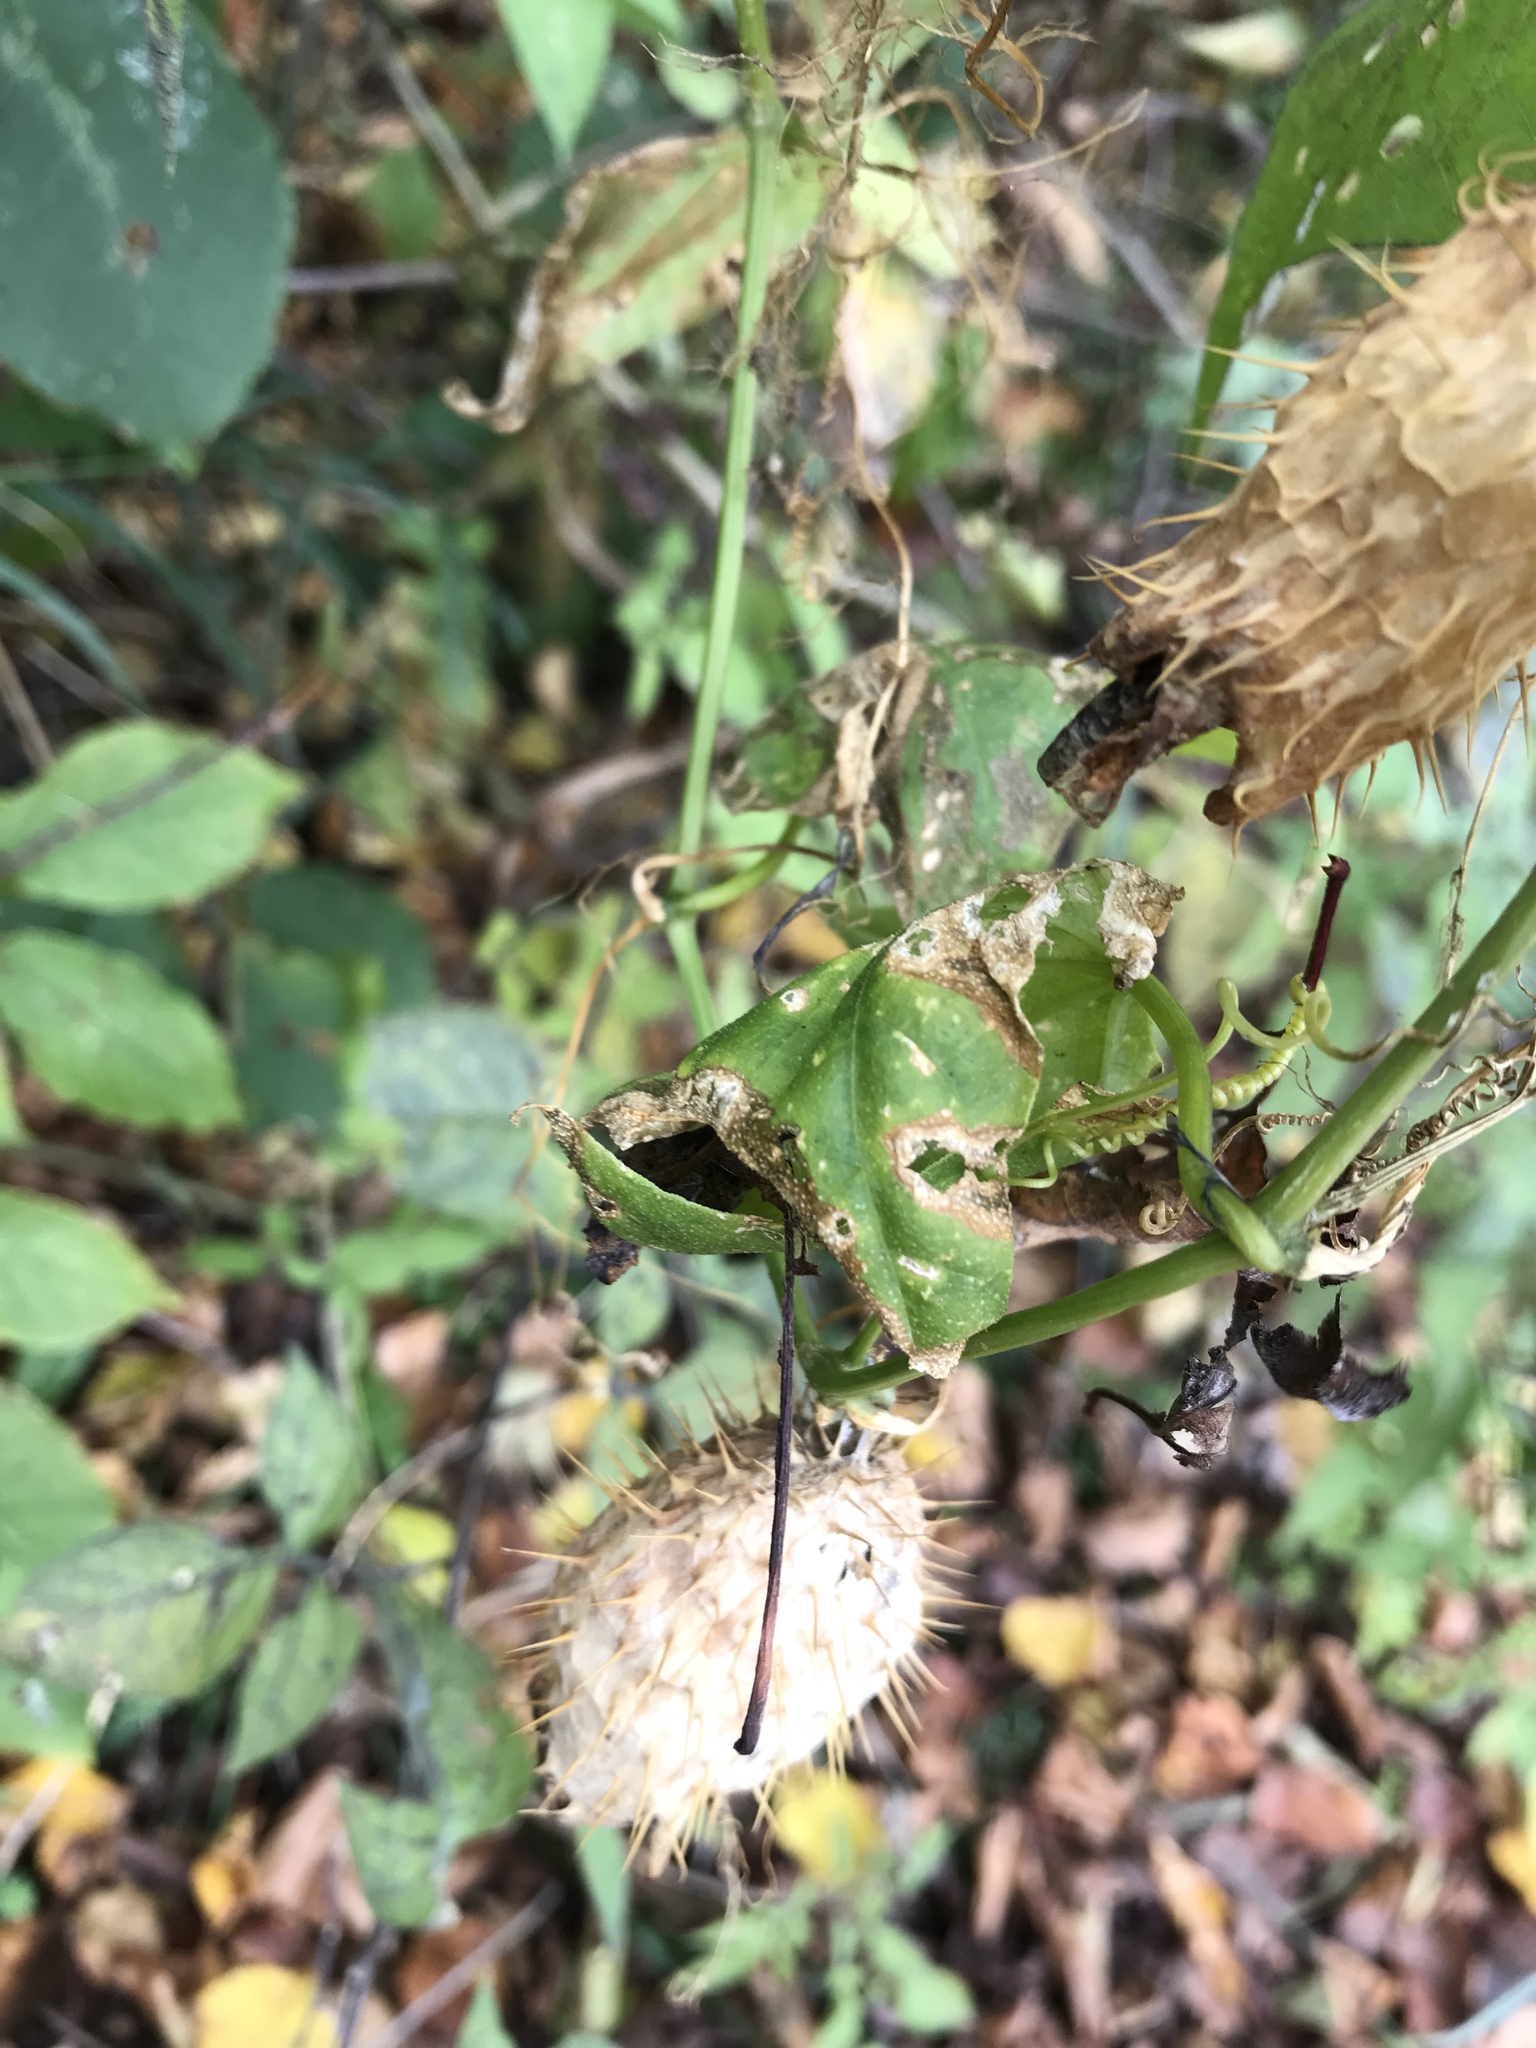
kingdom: Plantae
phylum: Tracheophyta
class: Magnoliopsida
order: Cucurbitales
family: Cucurbitaceae
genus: Echinocystis
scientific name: Echinocystis lobata
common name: Wild cucumber
